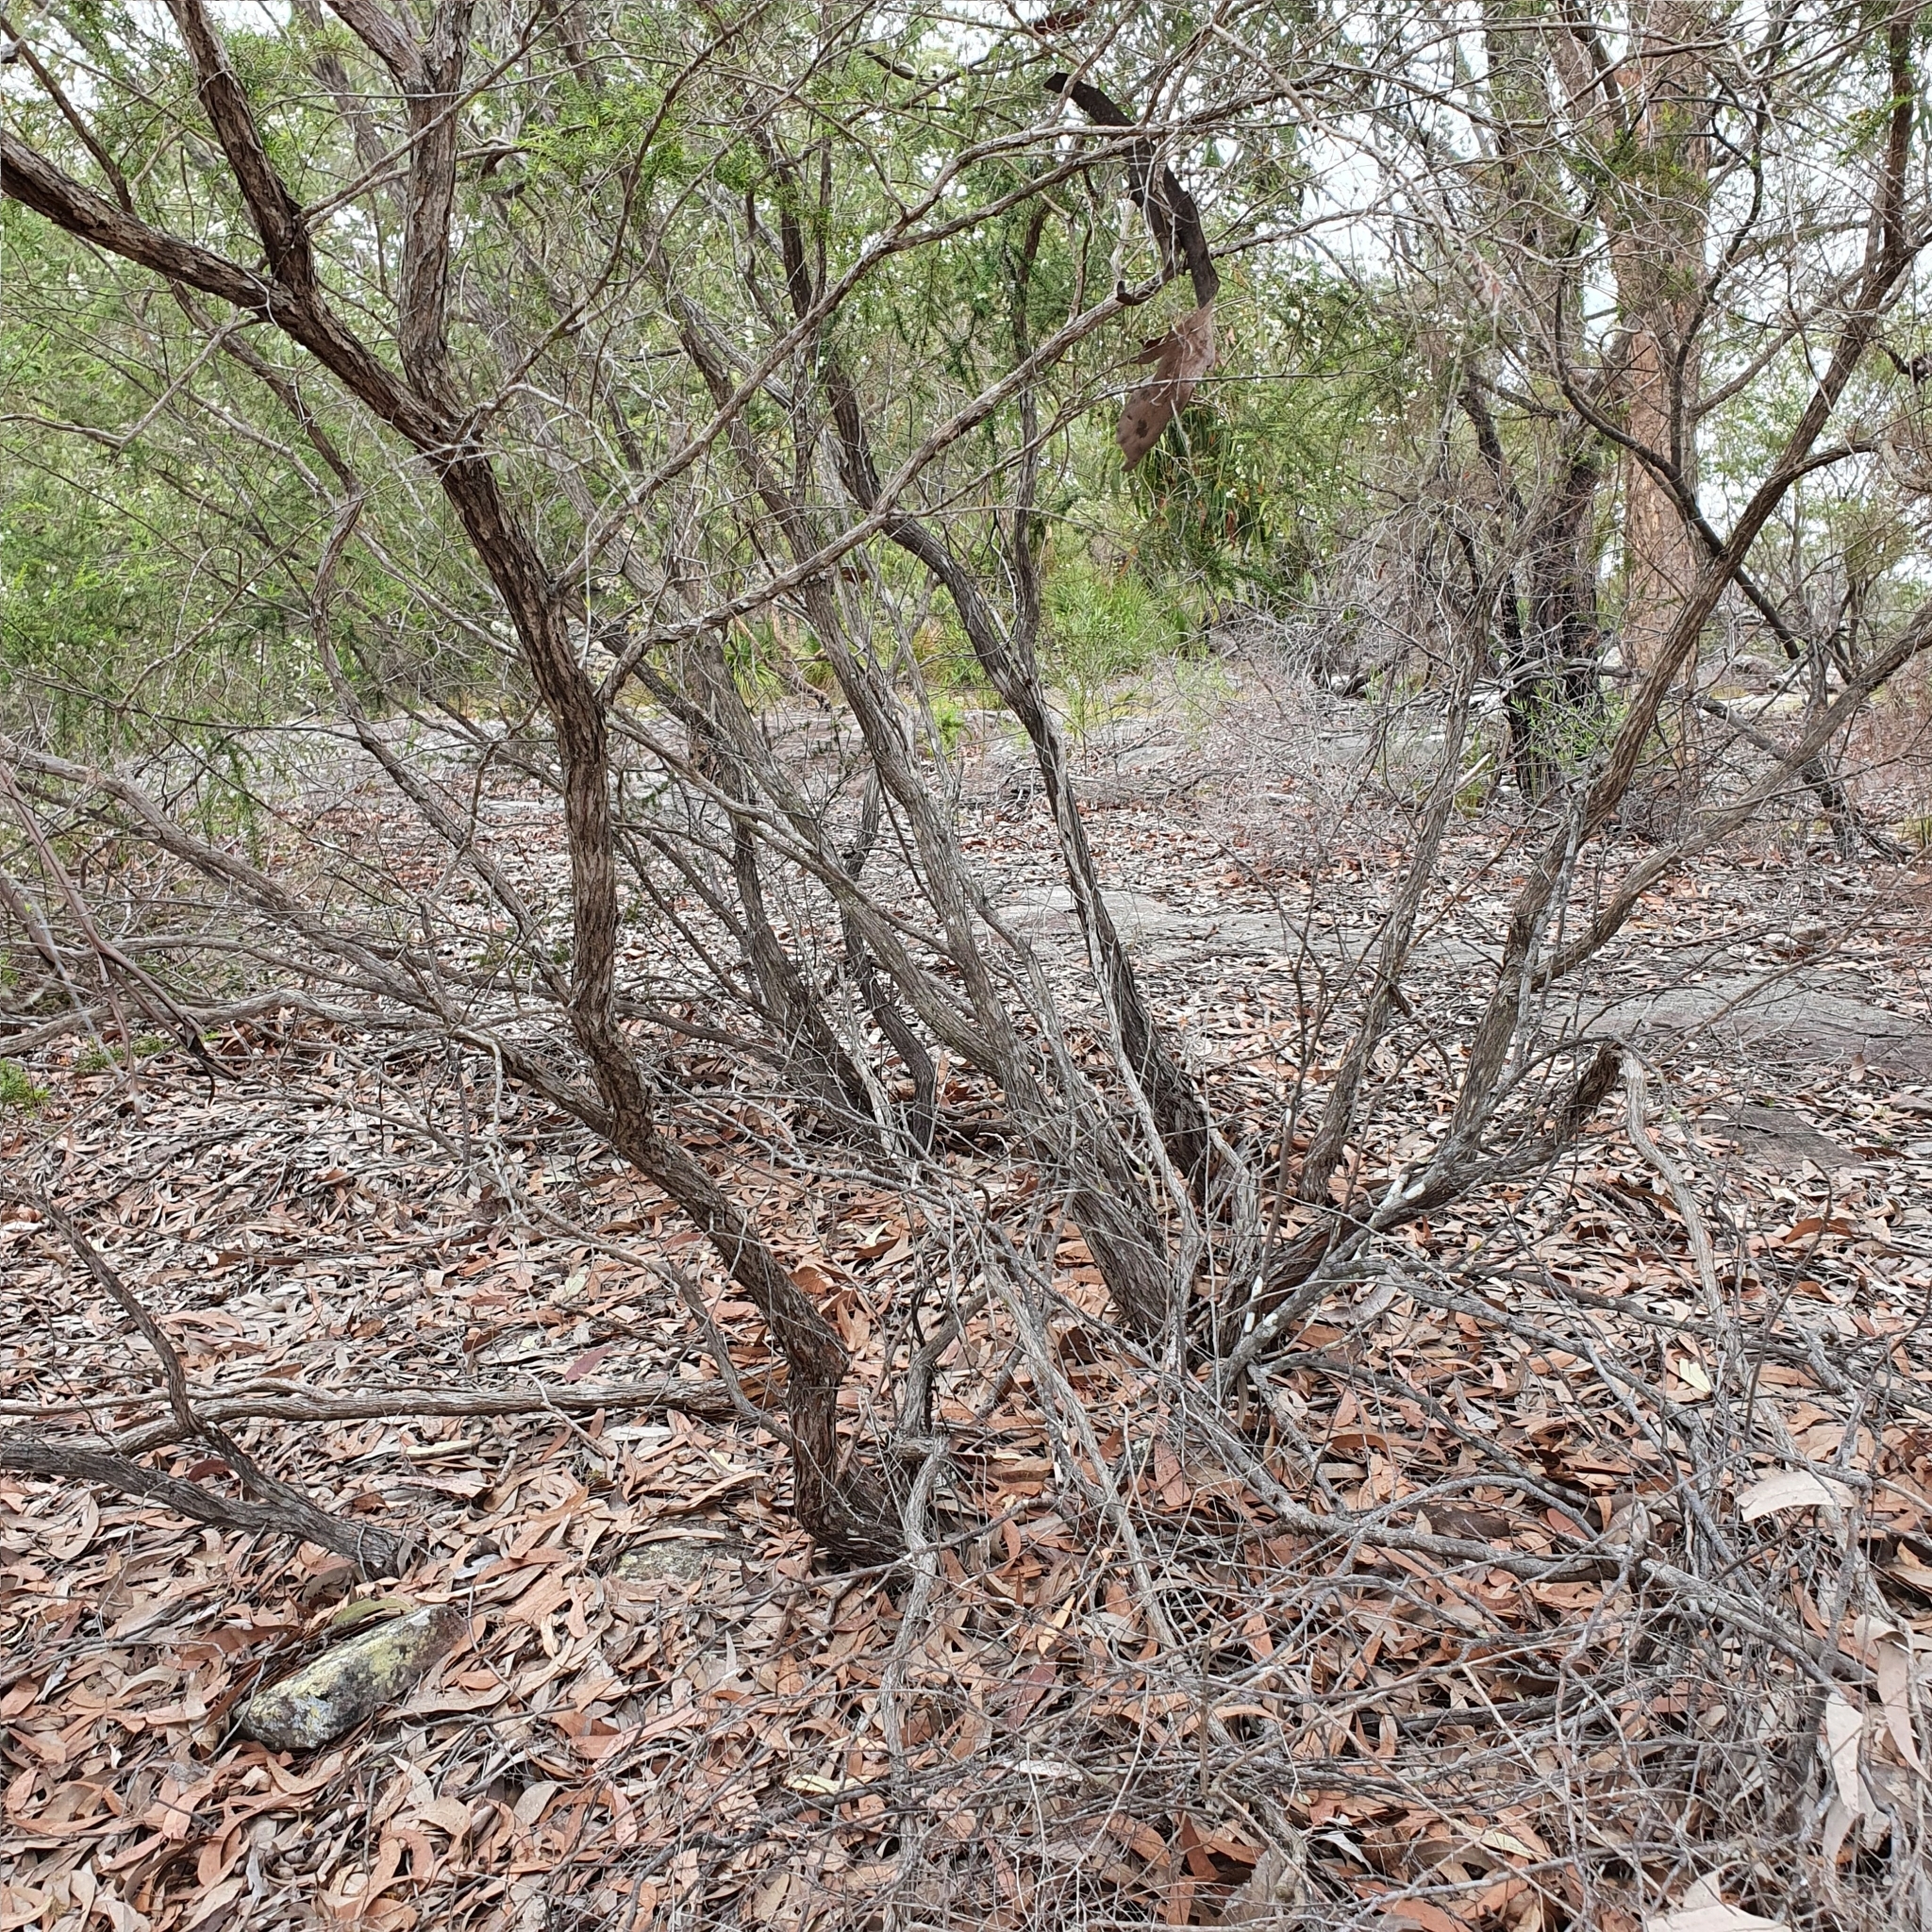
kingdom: Plantae
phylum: Tracheophyta
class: Magnoliopsida
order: Myrtales
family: Myrtaceae
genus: Kunzea
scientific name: Kunzea ambigua
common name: Tickbush
